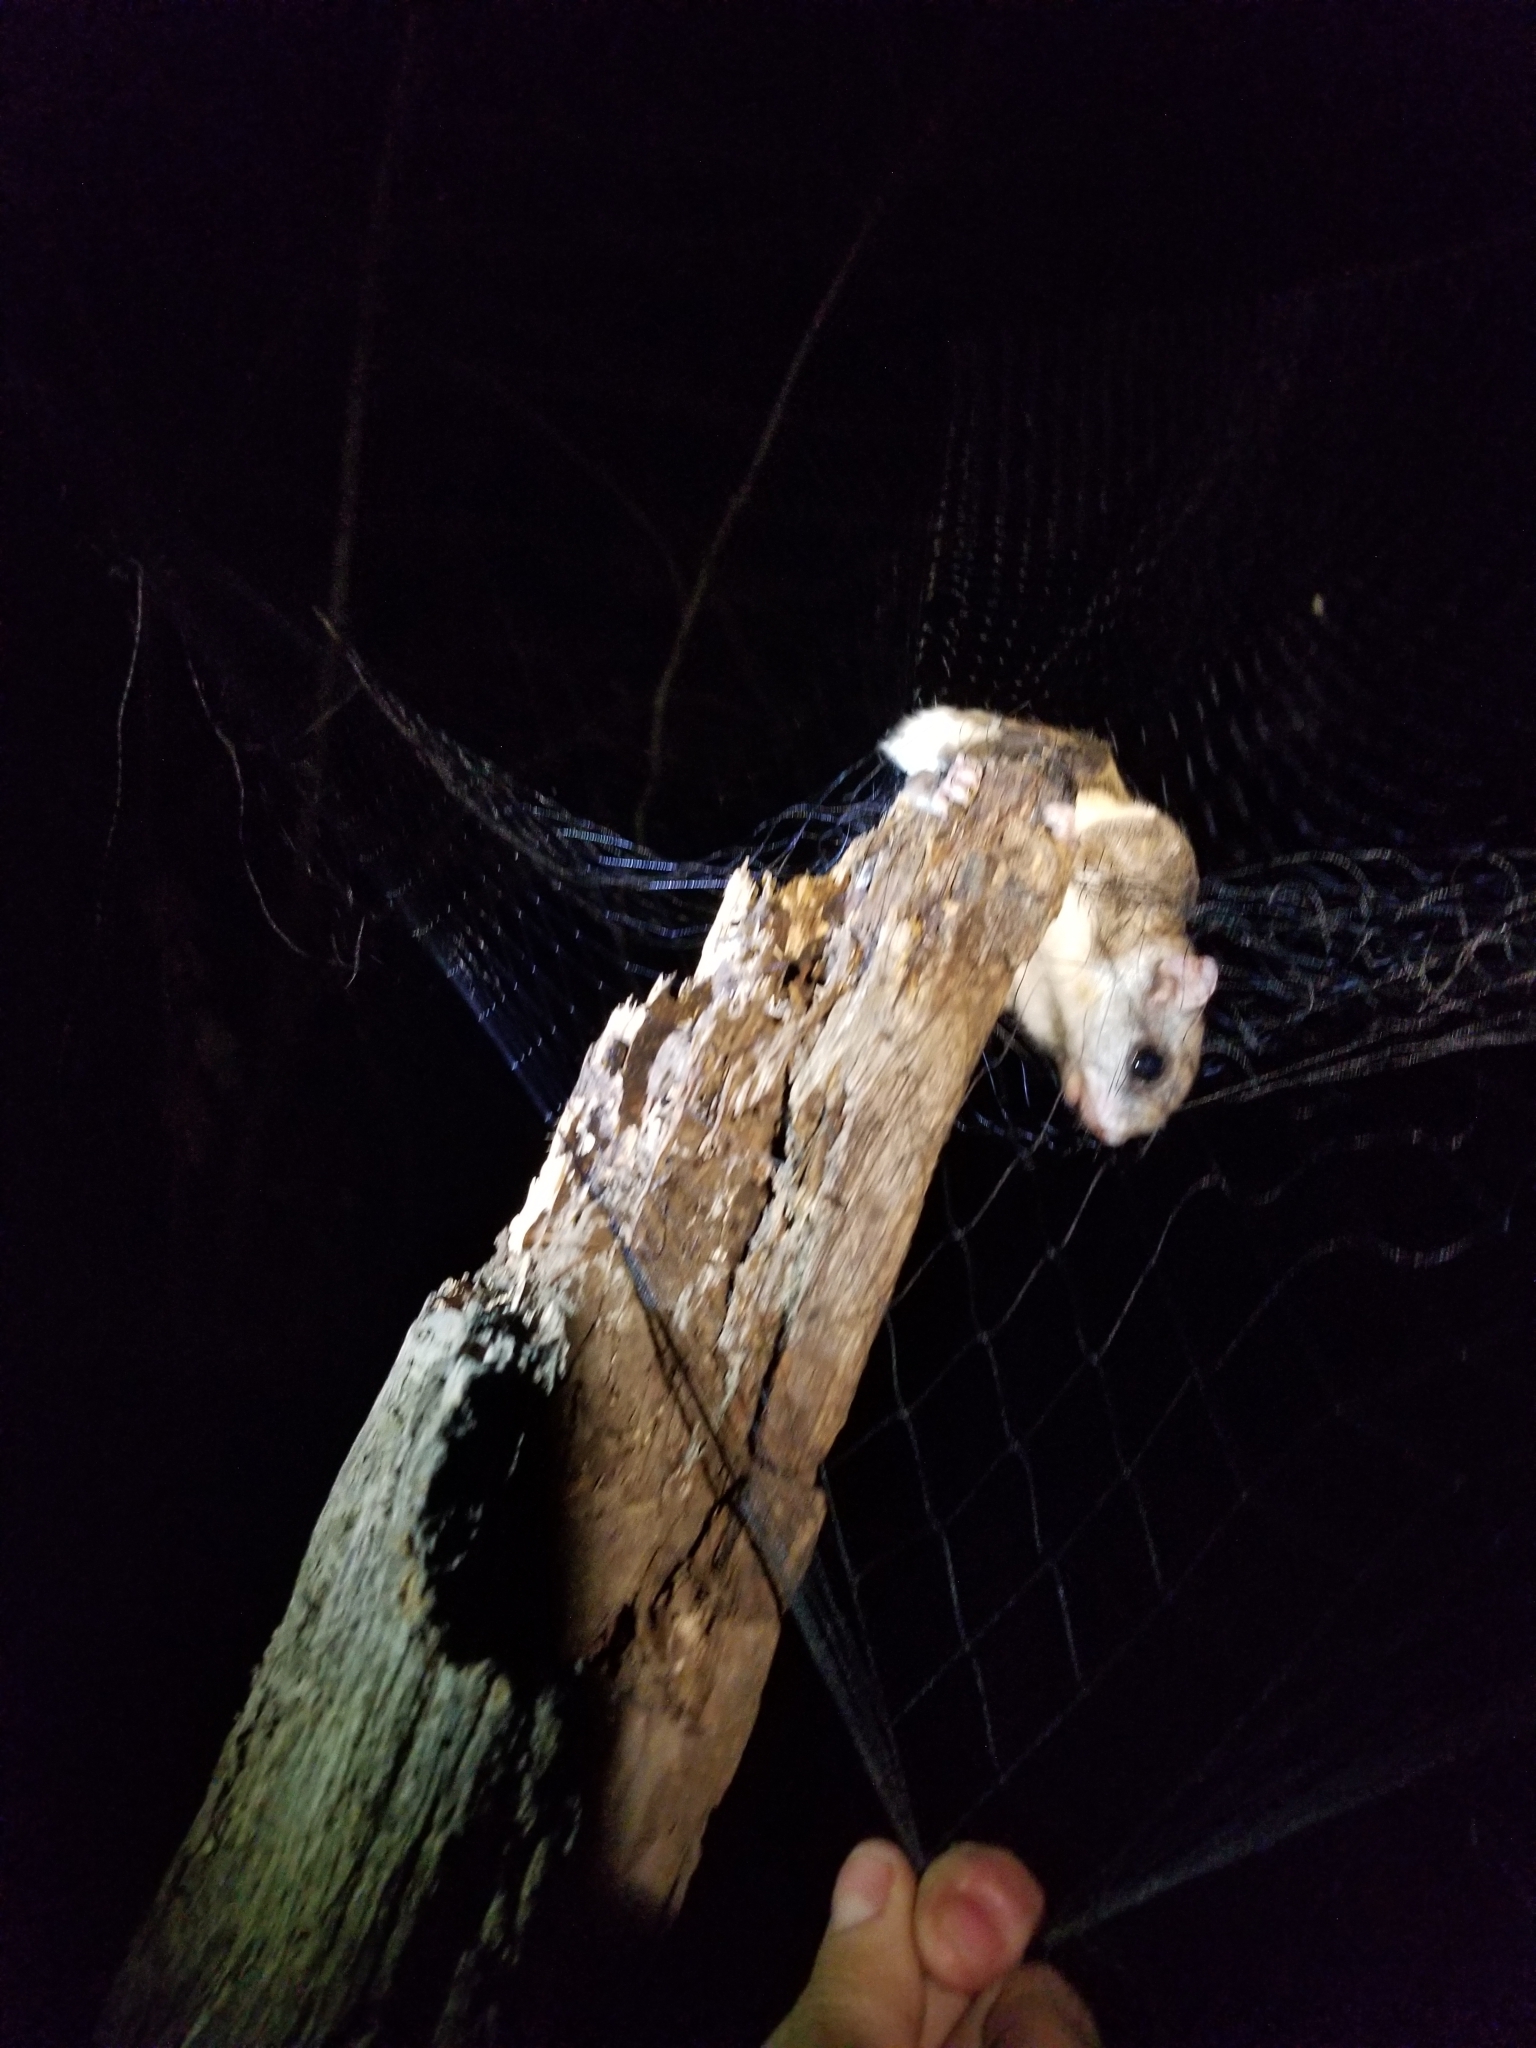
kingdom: Animalia
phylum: Chordata
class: Mammalia
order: Rodentia
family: Sciuridae
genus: Glaucomys
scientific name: Glaucomys volans
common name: Southern flying squirrel
